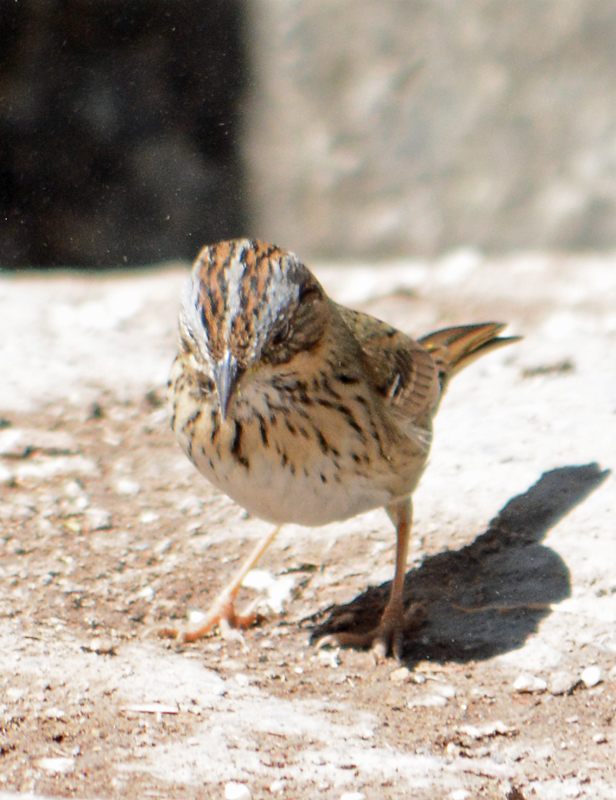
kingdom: Animalia
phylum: Chordata
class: Aves
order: Passeriformes
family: Passerellidae
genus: Melospiza
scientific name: Melospiza lincolnii
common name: Lincoln's sparrow
